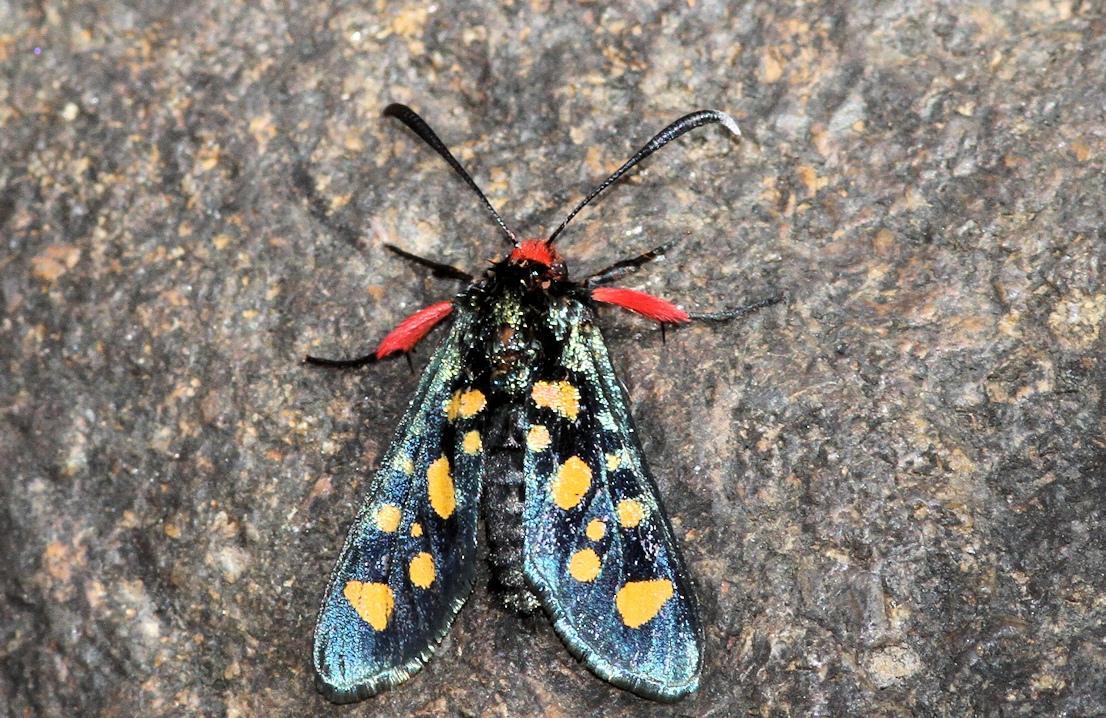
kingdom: Animalia
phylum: Arthropoda
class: Insecta
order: Lepidoptera
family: Thyrididae
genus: Arniocera
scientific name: Arniocera auriguttata
